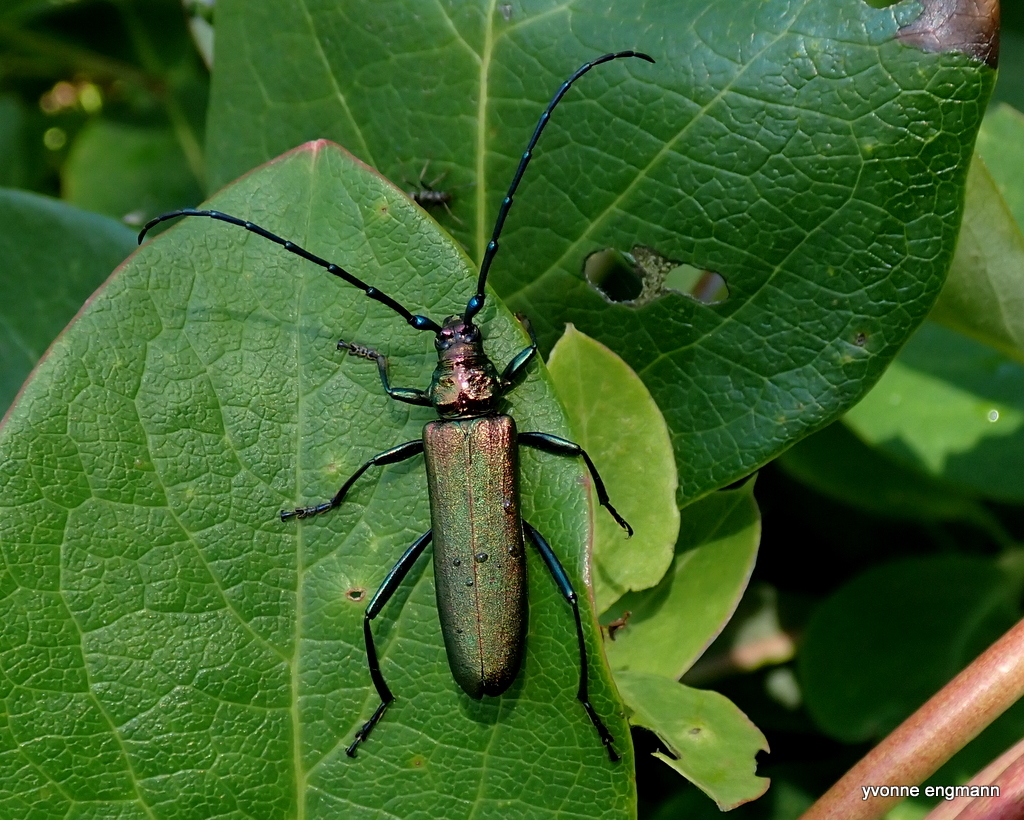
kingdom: Animalia
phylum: Arthropoda
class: Insecta
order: Coleoptera
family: Cerambycidae
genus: Aromia
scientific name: Aromia moschata
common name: Musk beetle
